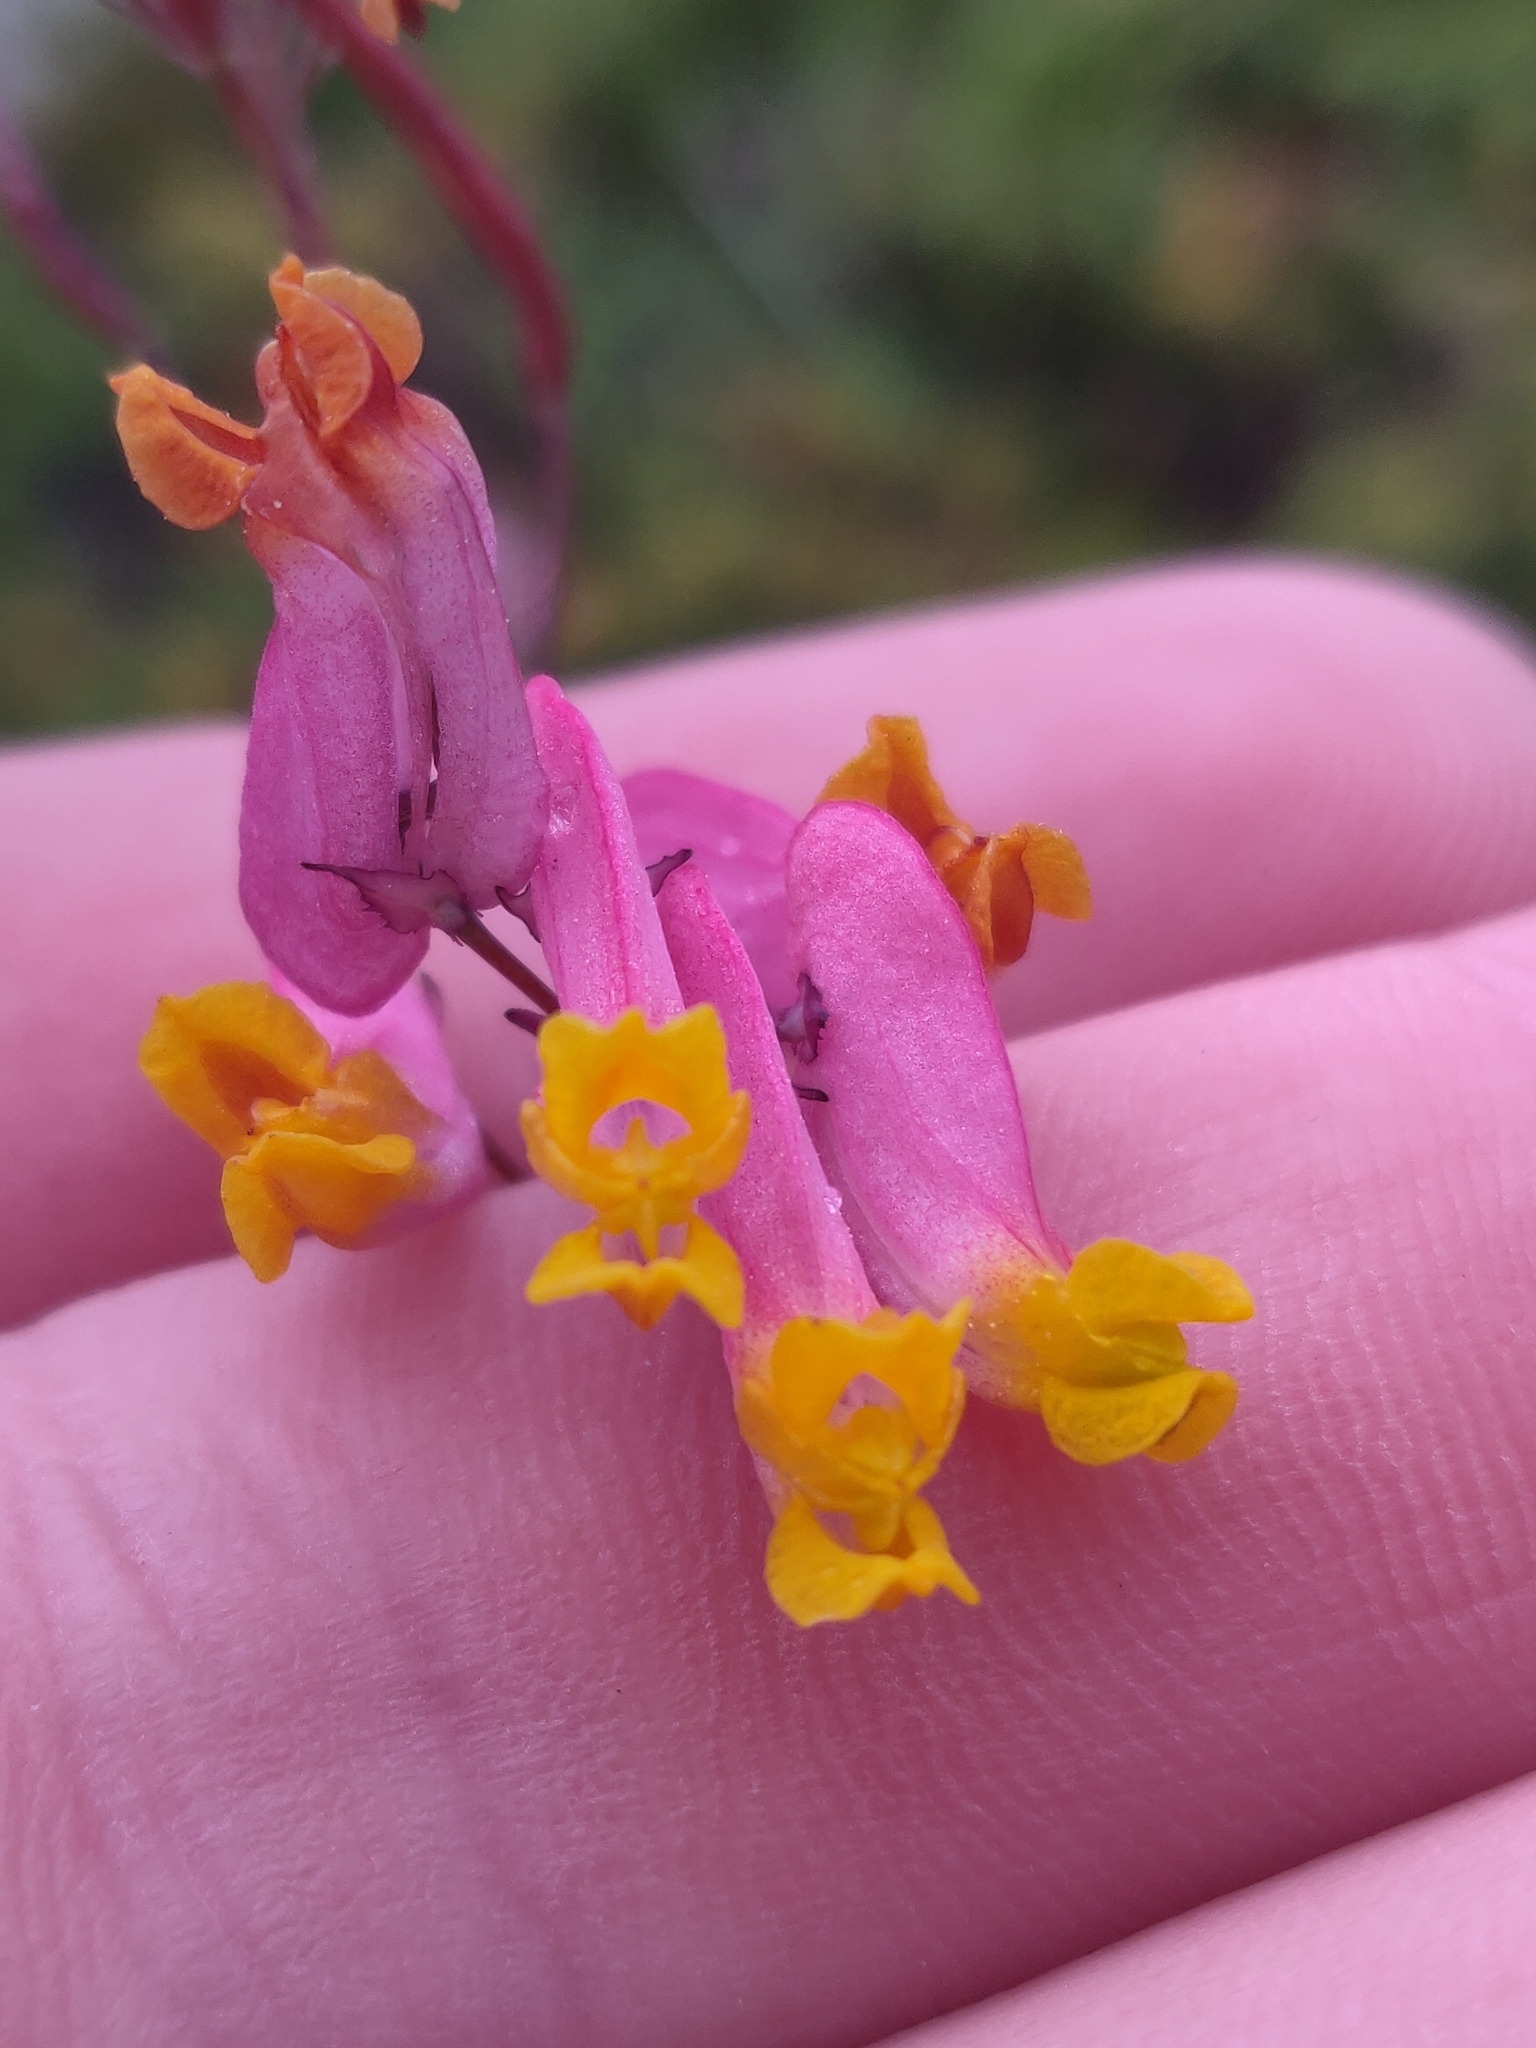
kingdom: Plantae
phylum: Tracheophyta
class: Magnoliopsida
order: Ranunculales
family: Papaveraceae
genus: Capnoides
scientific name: Capnoides sempervirens
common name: Rock harlequin
